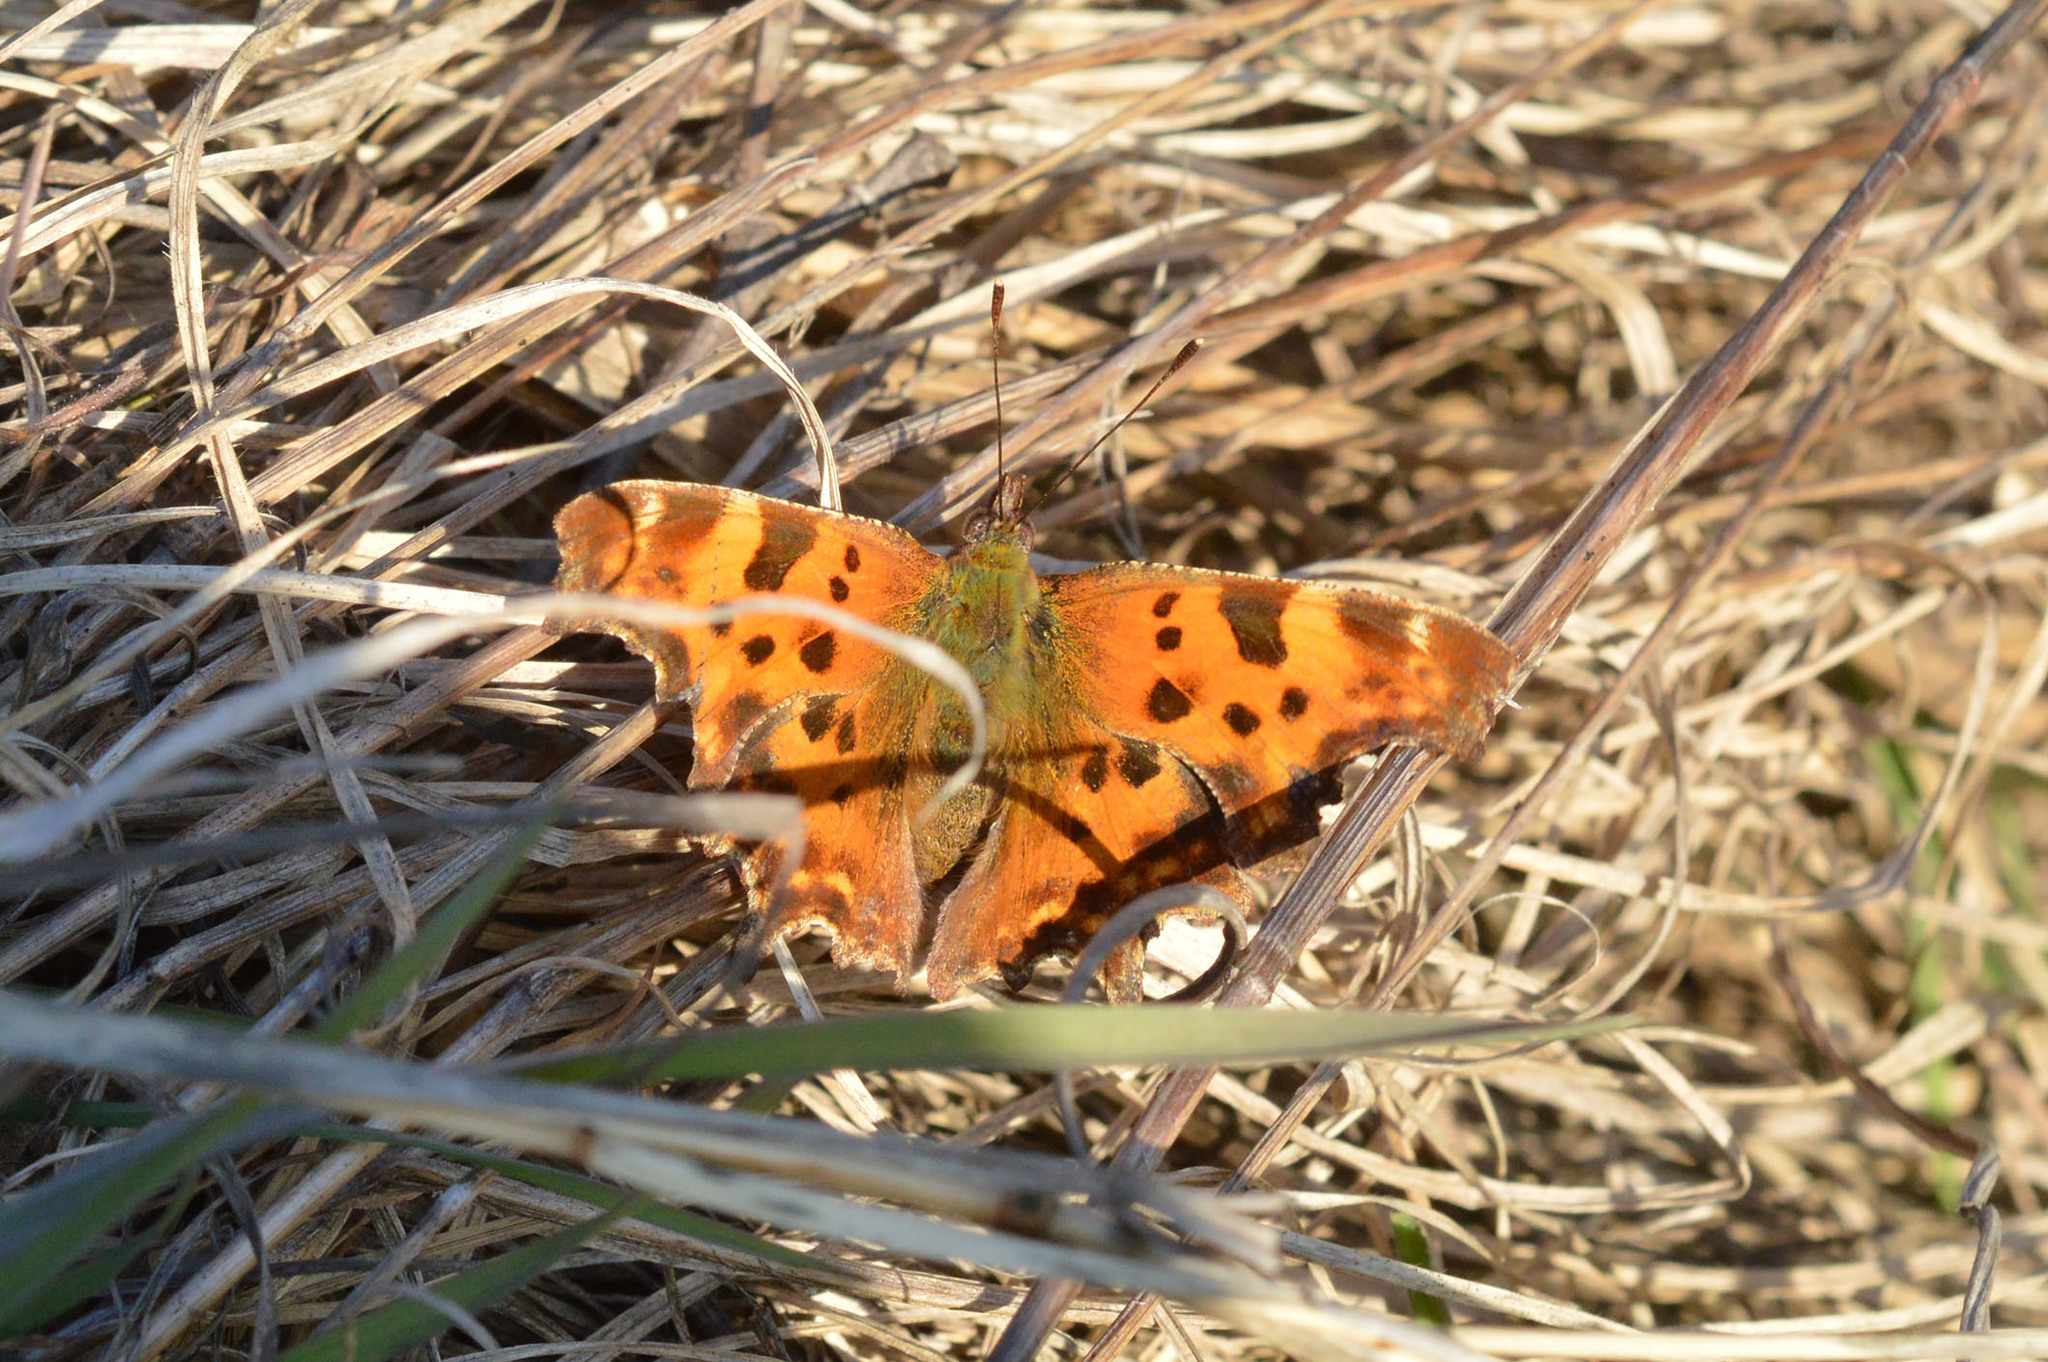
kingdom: Animalia
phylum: Arthropoda
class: Insecta
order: Lepidoptera
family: Nymphalidae
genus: Polygonia
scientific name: Polygonia c-album
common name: Comma
